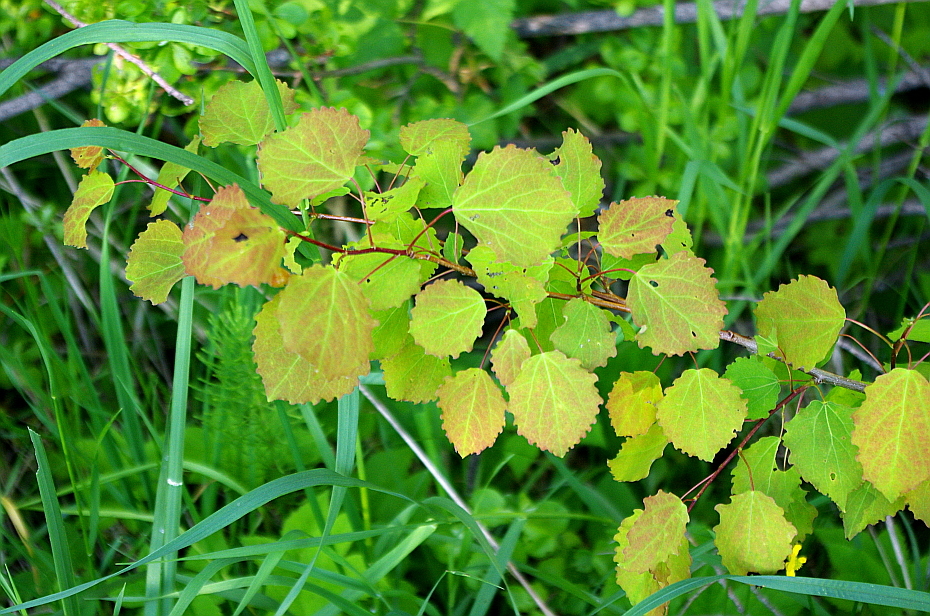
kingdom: Plantae
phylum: Tracheophyta
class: Magnoliopsida
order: Malpighiales
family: Salicaceae
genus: Populus
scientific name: Populus tremula
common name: European aspen
